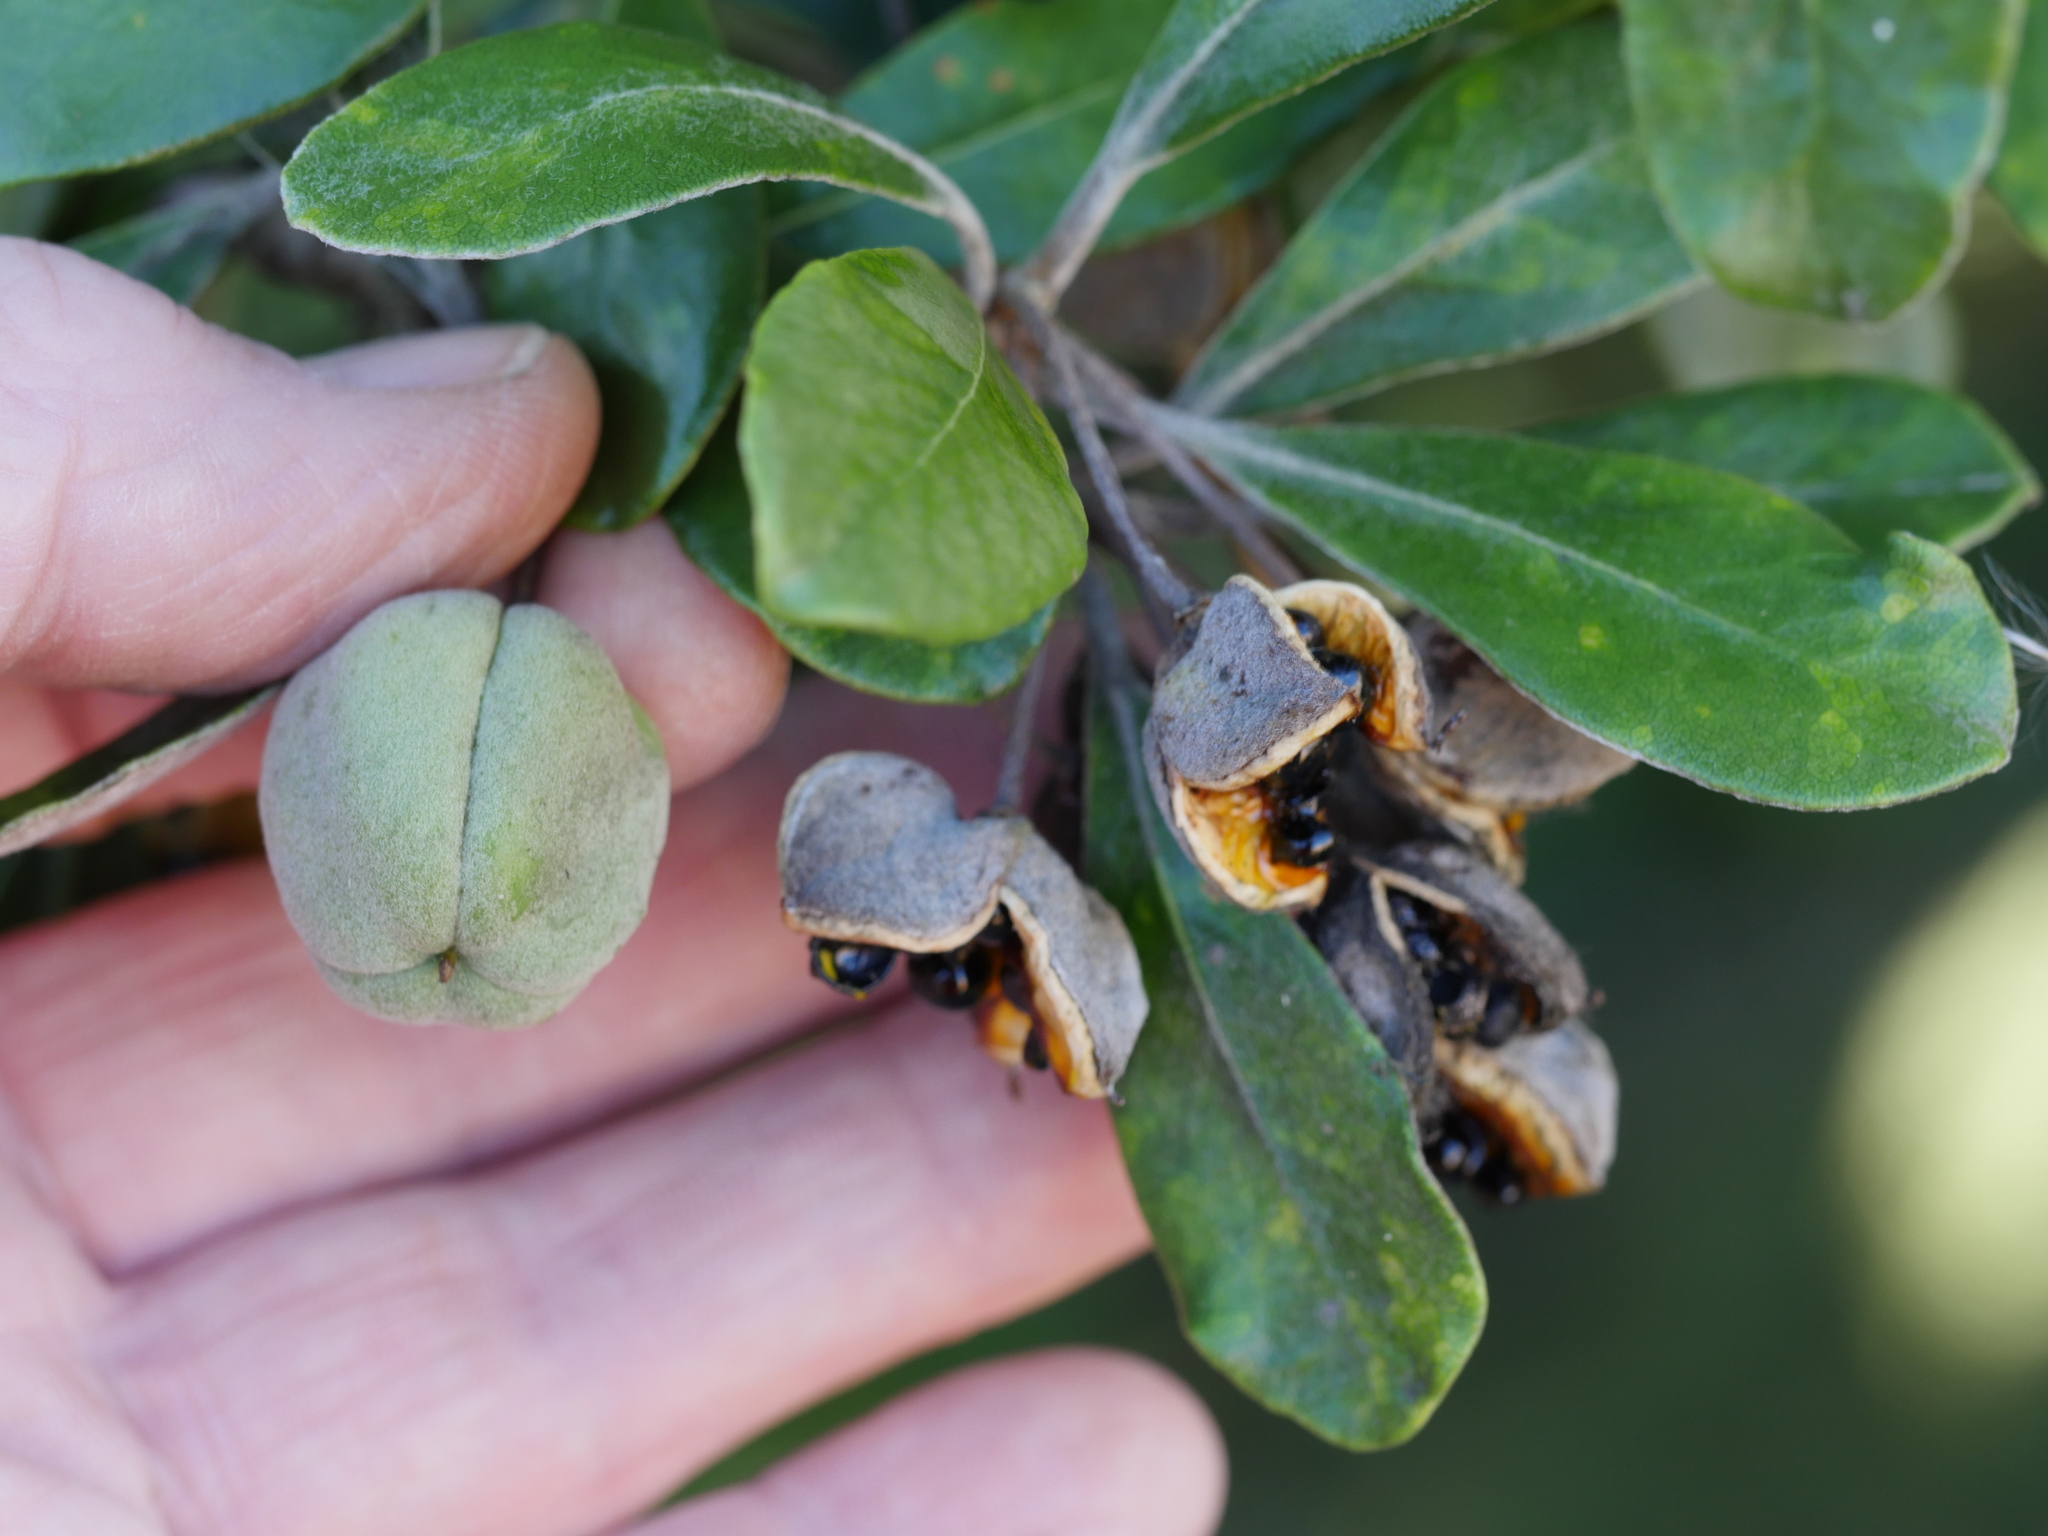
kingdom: Plantae
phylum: Tracheophyta
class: Magnoliopsida
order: Apiales
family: Pittosporaceae
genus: Pittosporum
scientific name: Pittosporum crassifolium
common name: Karo
